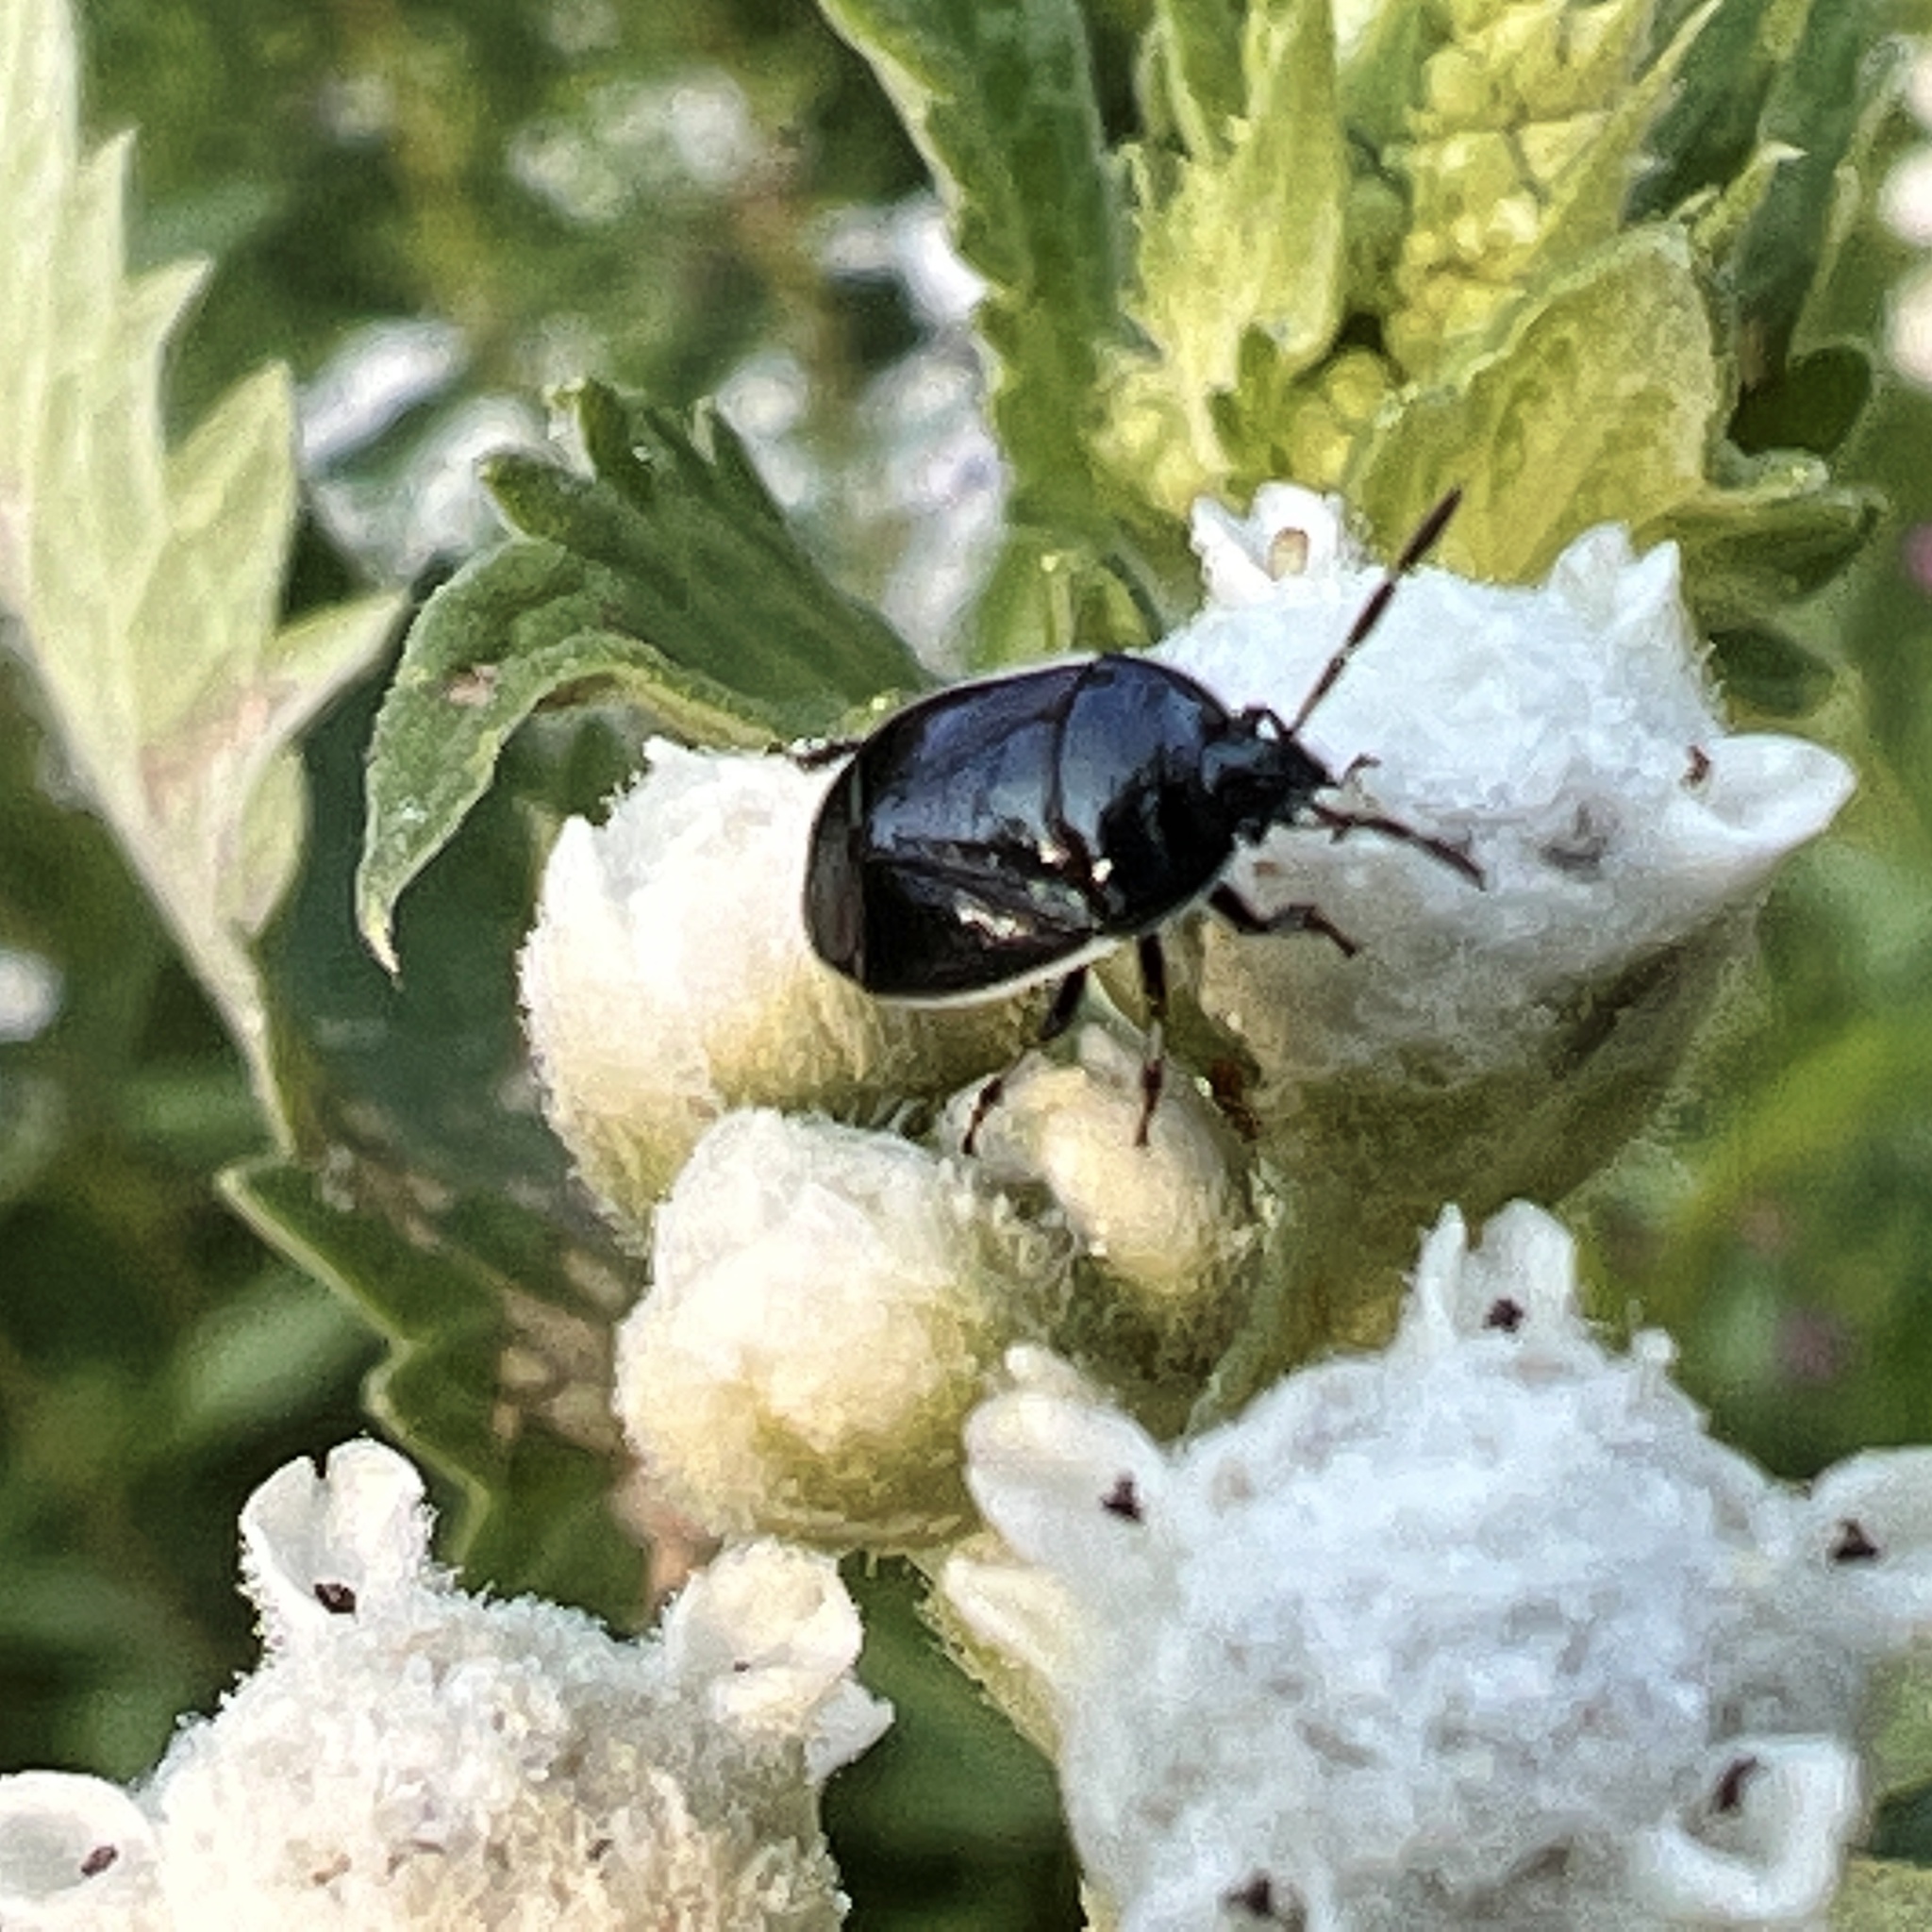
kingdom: Animalia
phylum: Arthropoda
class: Insecta
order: Hemiptera
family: Cydnidae
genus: Sehirus
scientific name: Sehirus cinctus
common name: White-margined burrower bug
